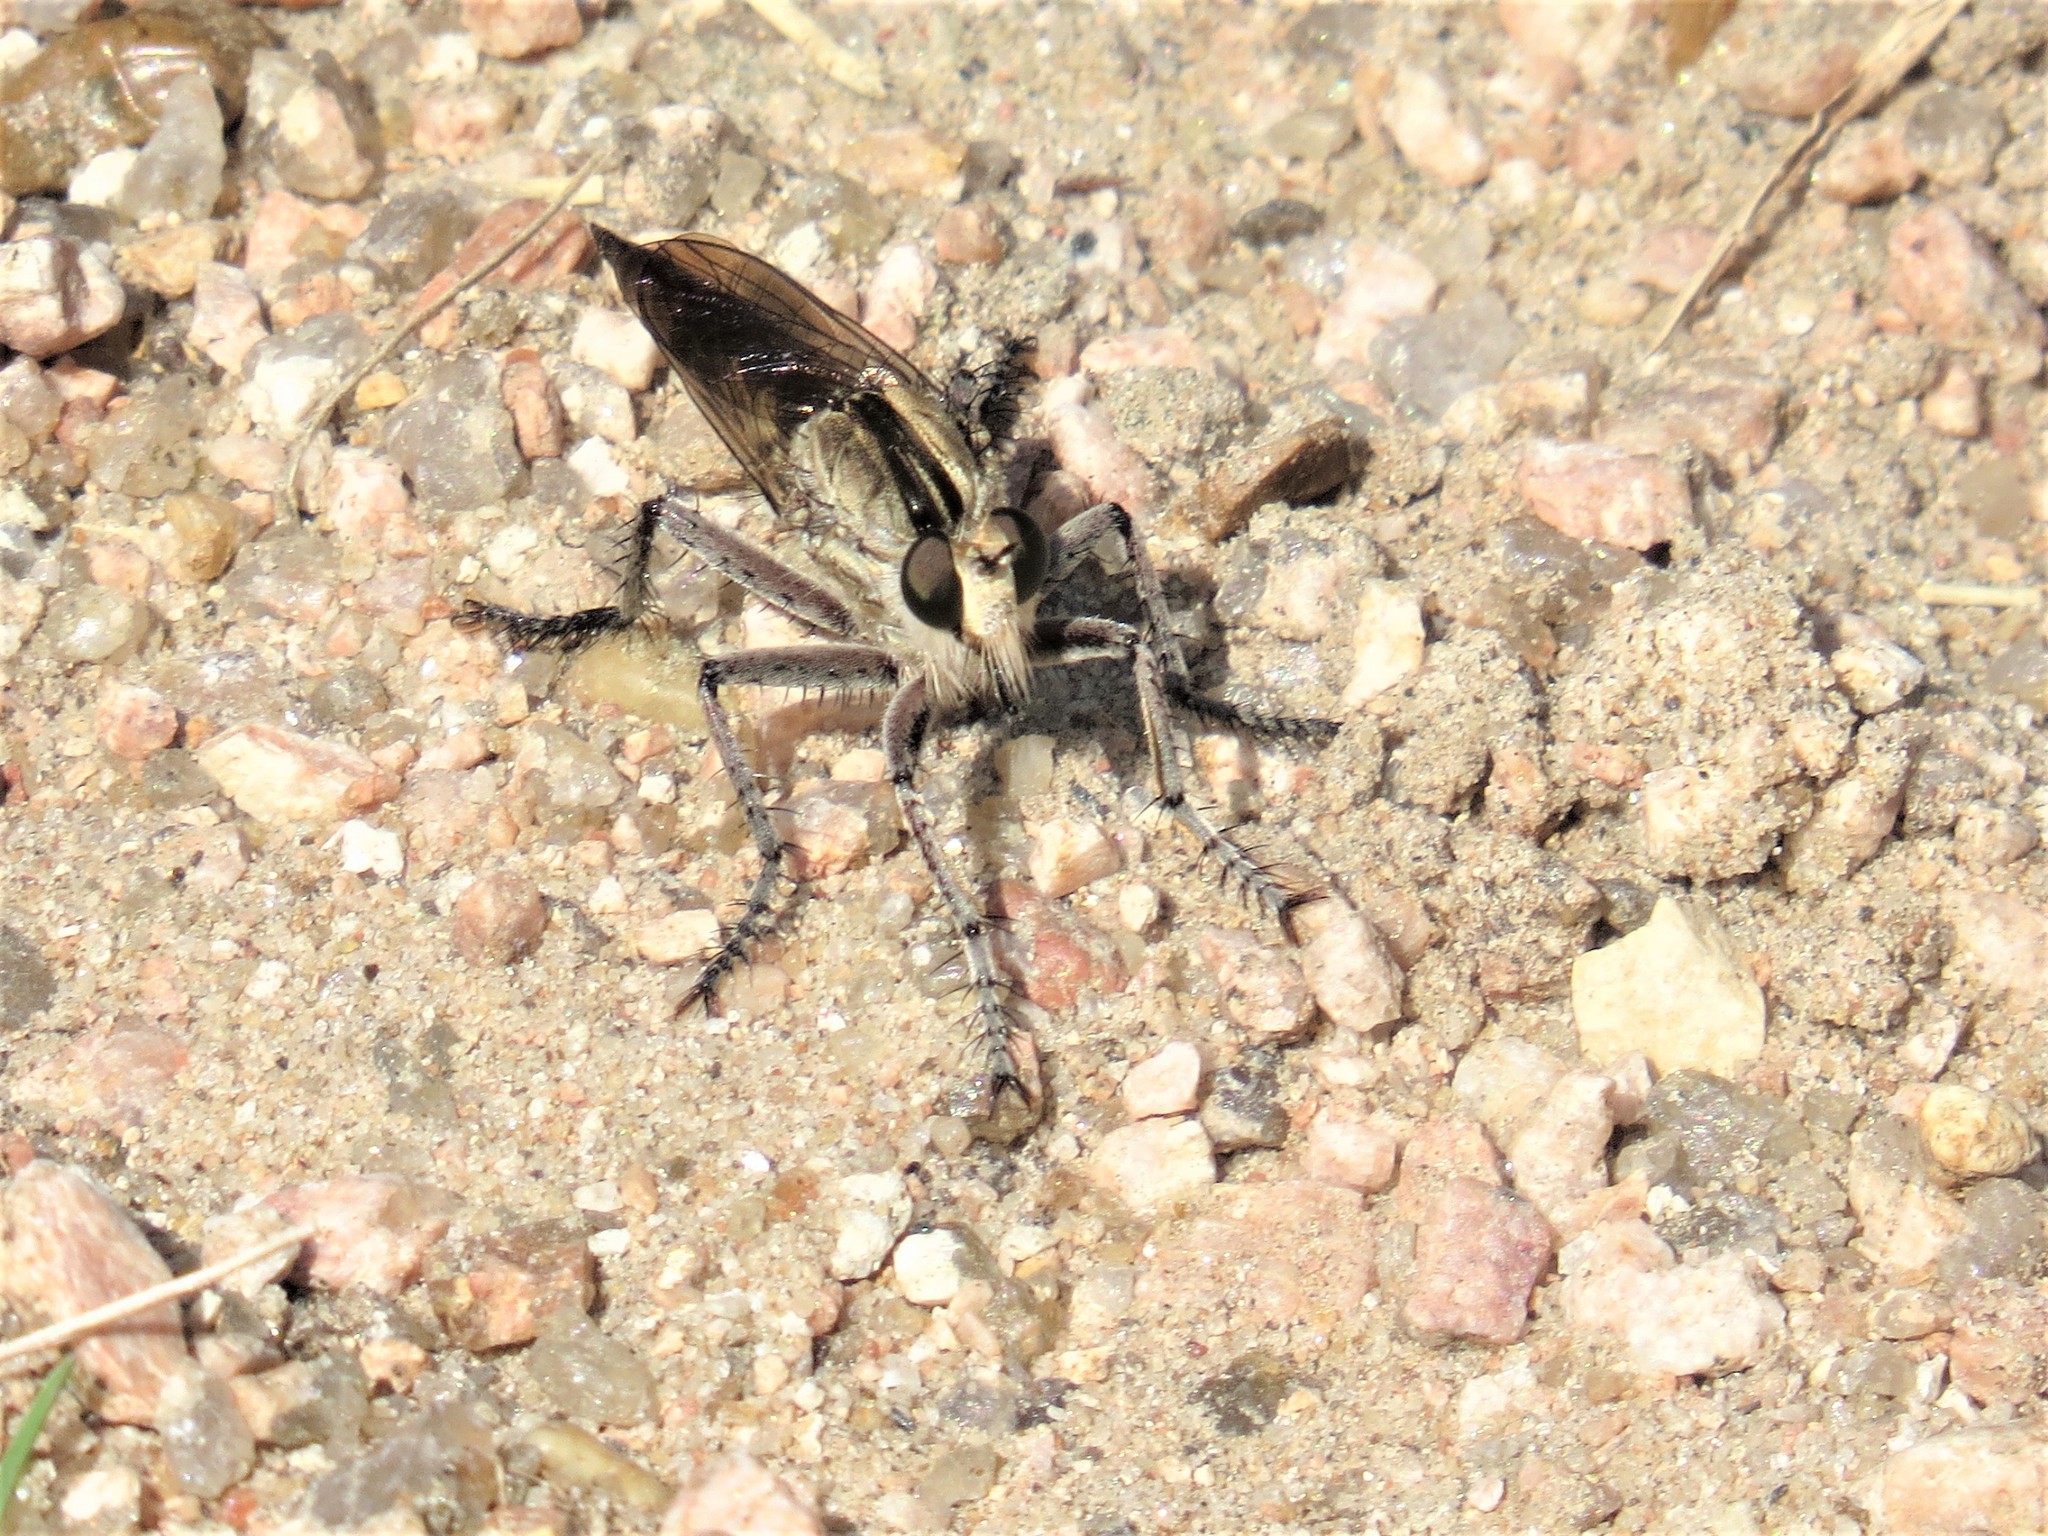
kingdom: Animalia
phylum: Arthropoda
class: Insecta
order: Diptera
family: Asilidae
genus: Triorla
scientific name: Triorla interrupta
